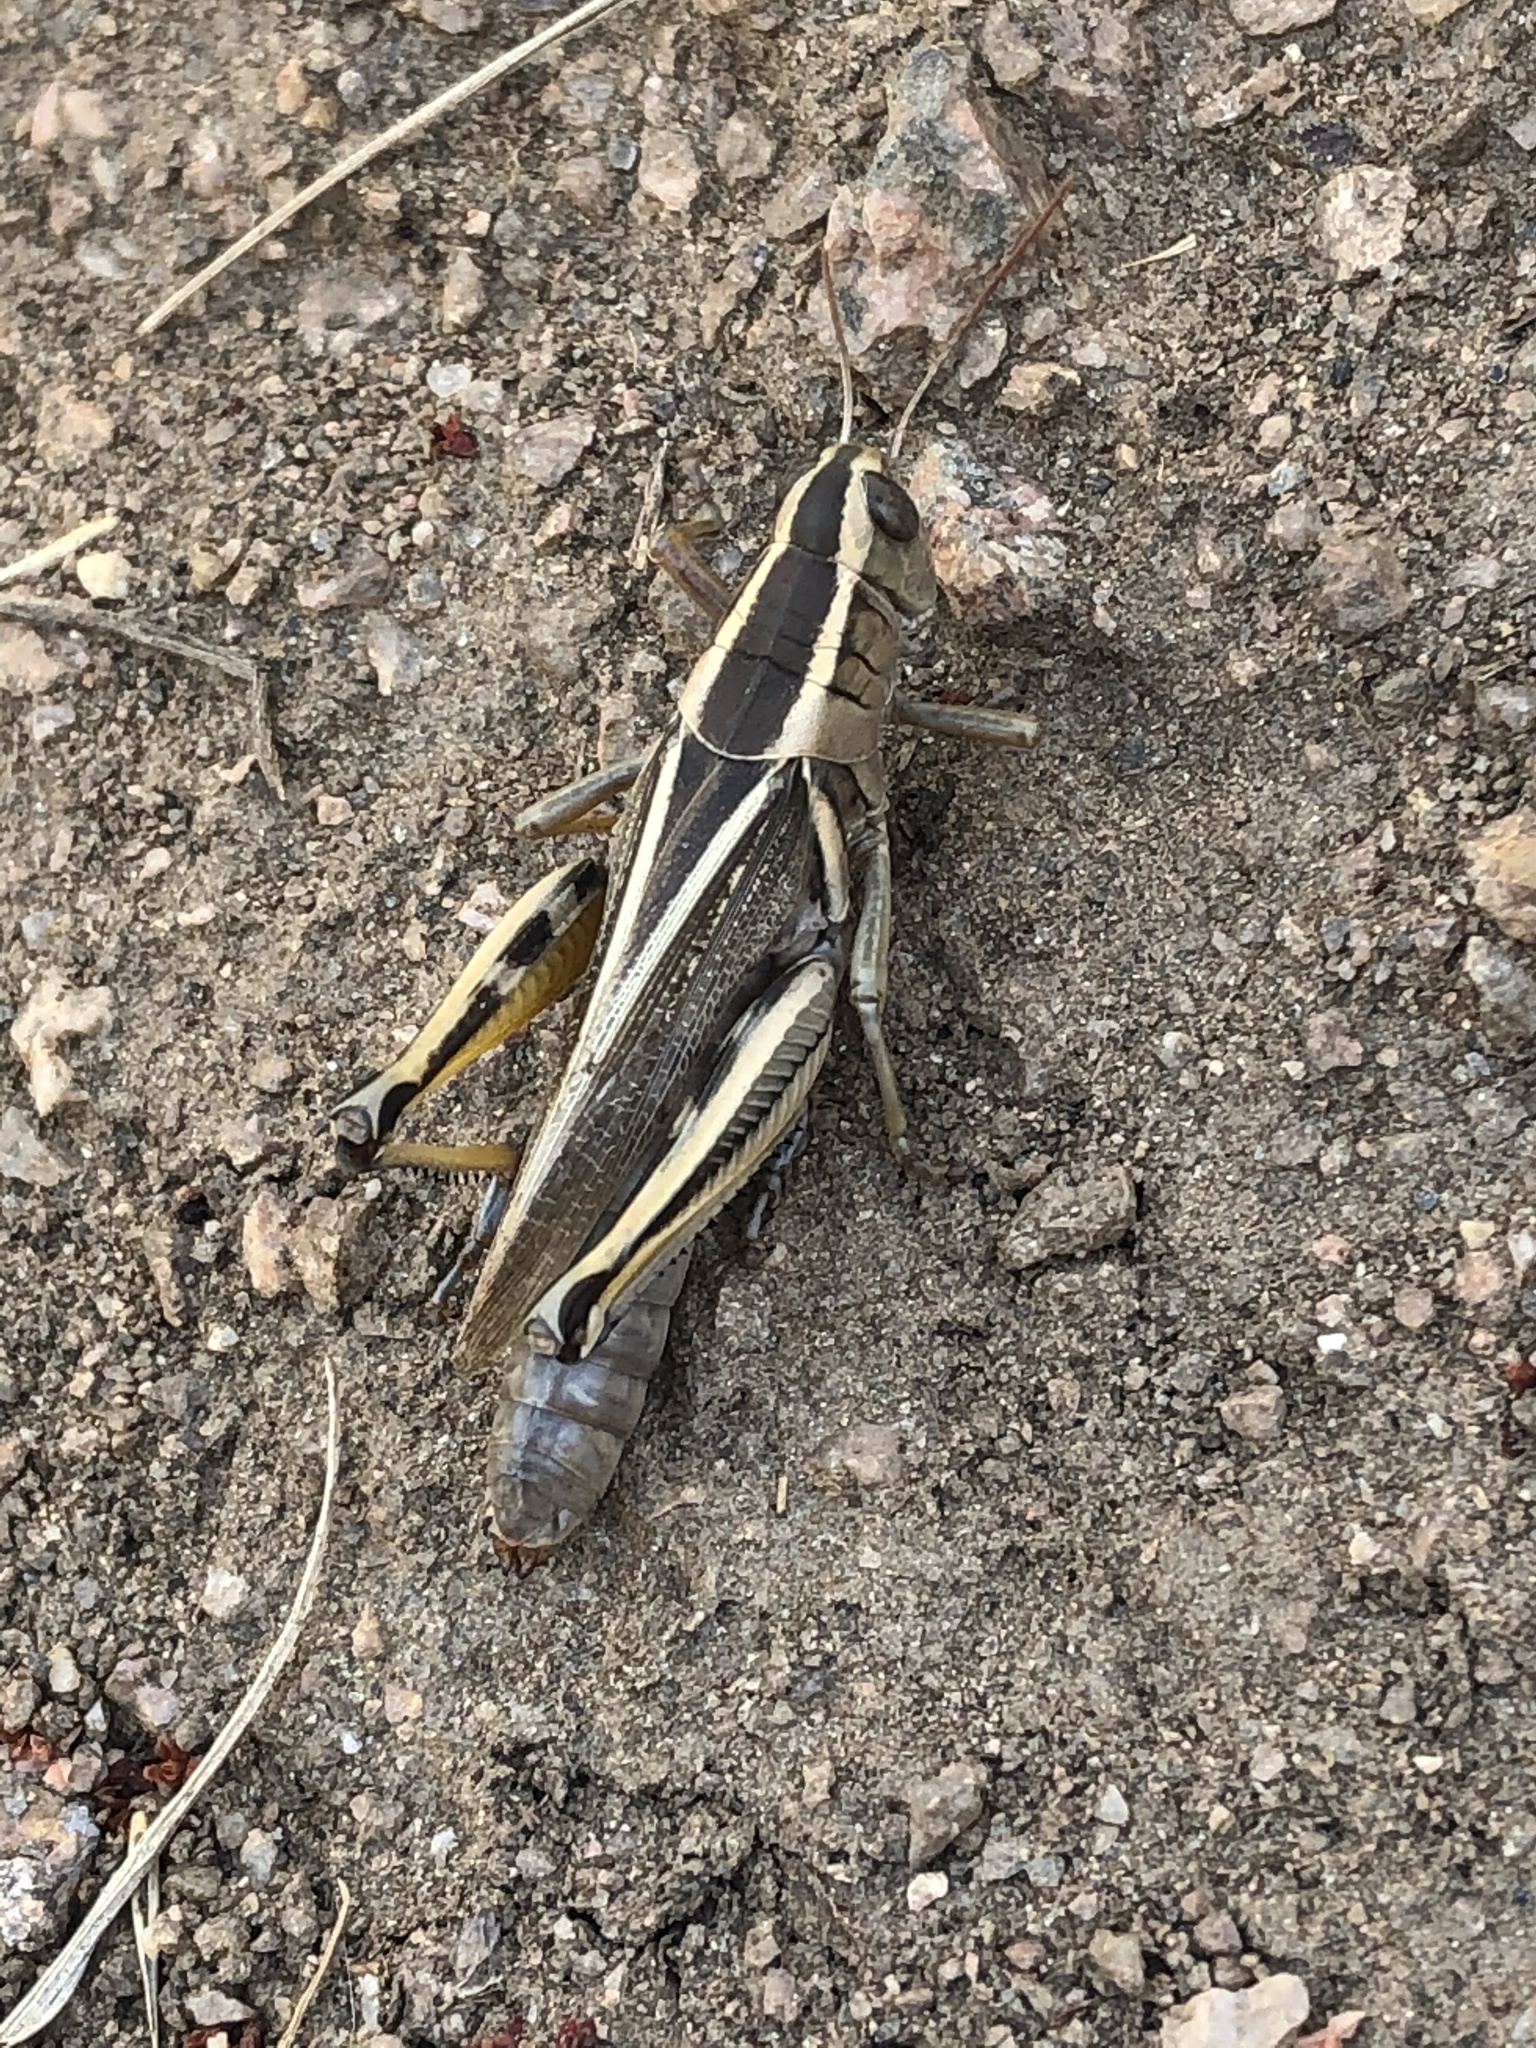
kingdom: Animalia
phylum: Arthropoda
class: Insecta
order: Orthoptera
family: Acrididae
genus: Melanoplus
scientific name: Melanoplus bivittatus
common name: Two-striped grasshopper
